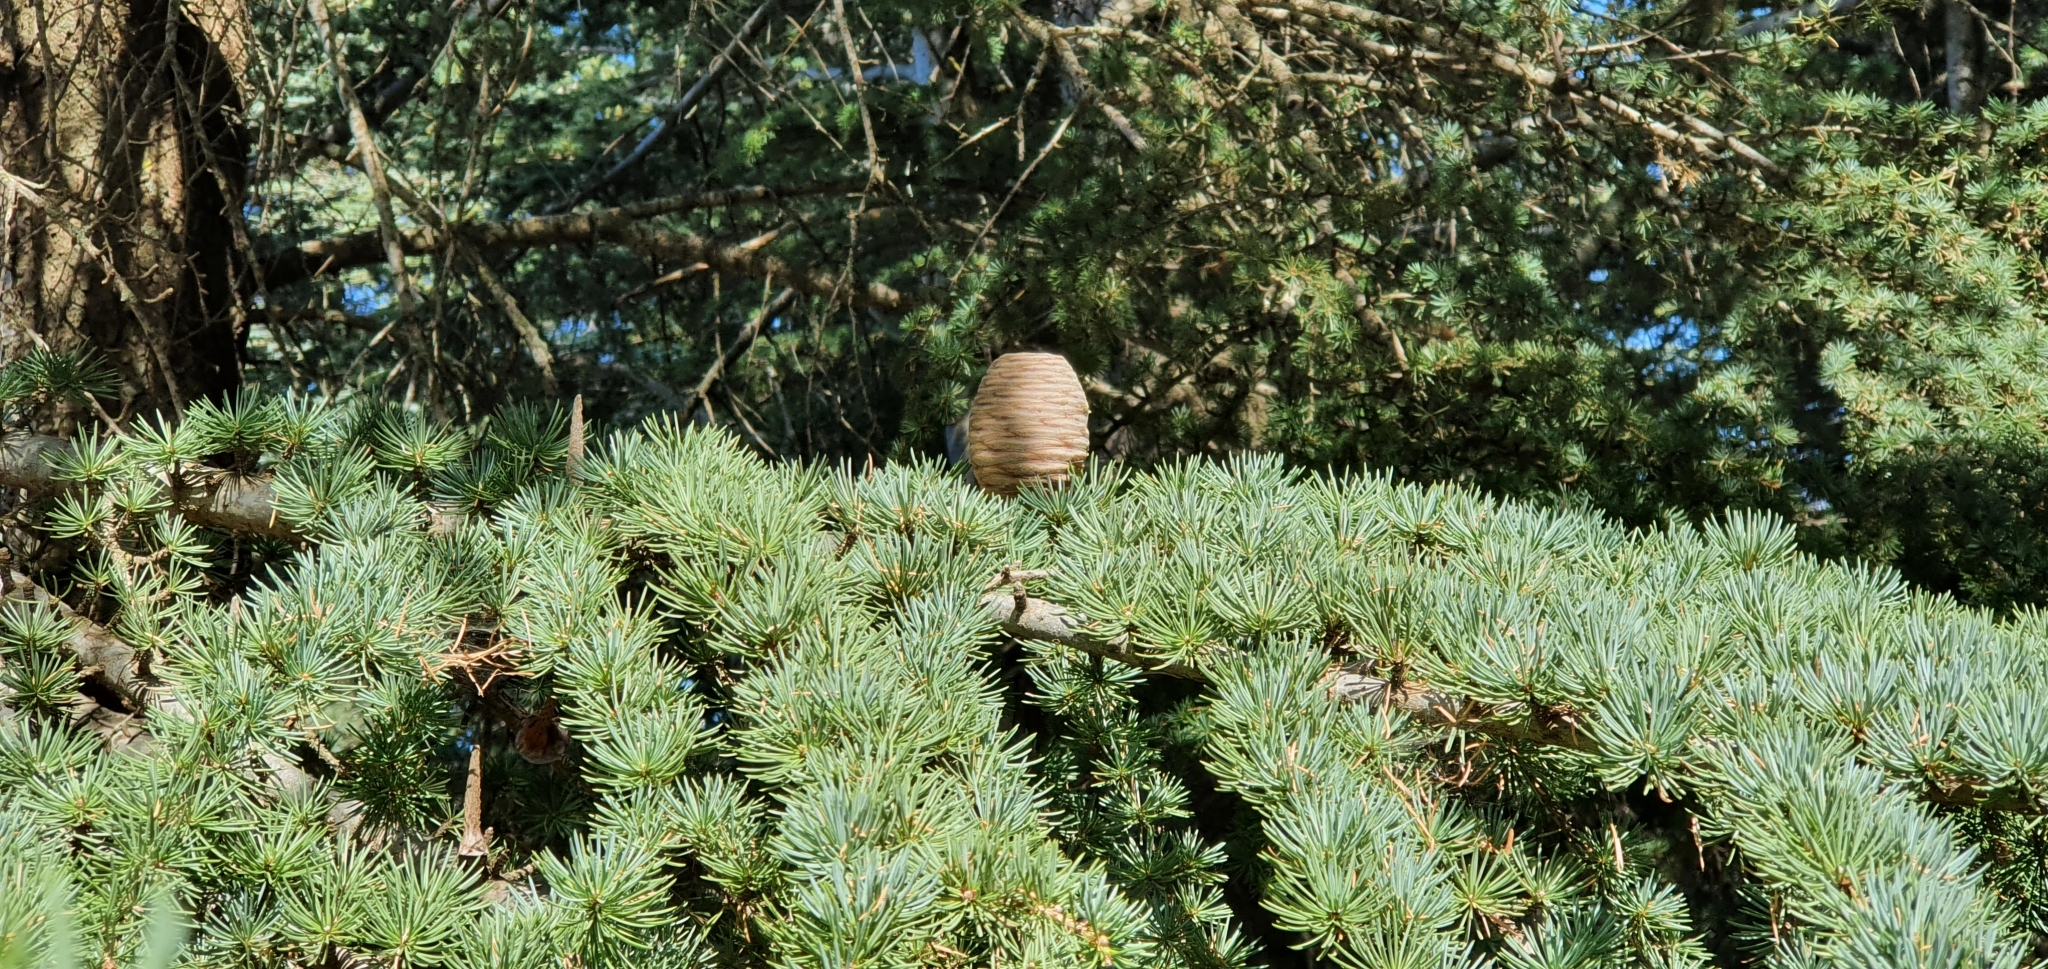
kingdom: Plantae
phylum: Tracheophyta
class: Pinopsida
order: Pinales
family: Pinaceae
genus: Cedrus
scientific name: Cedrus atlantica
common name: Atlas cedar
